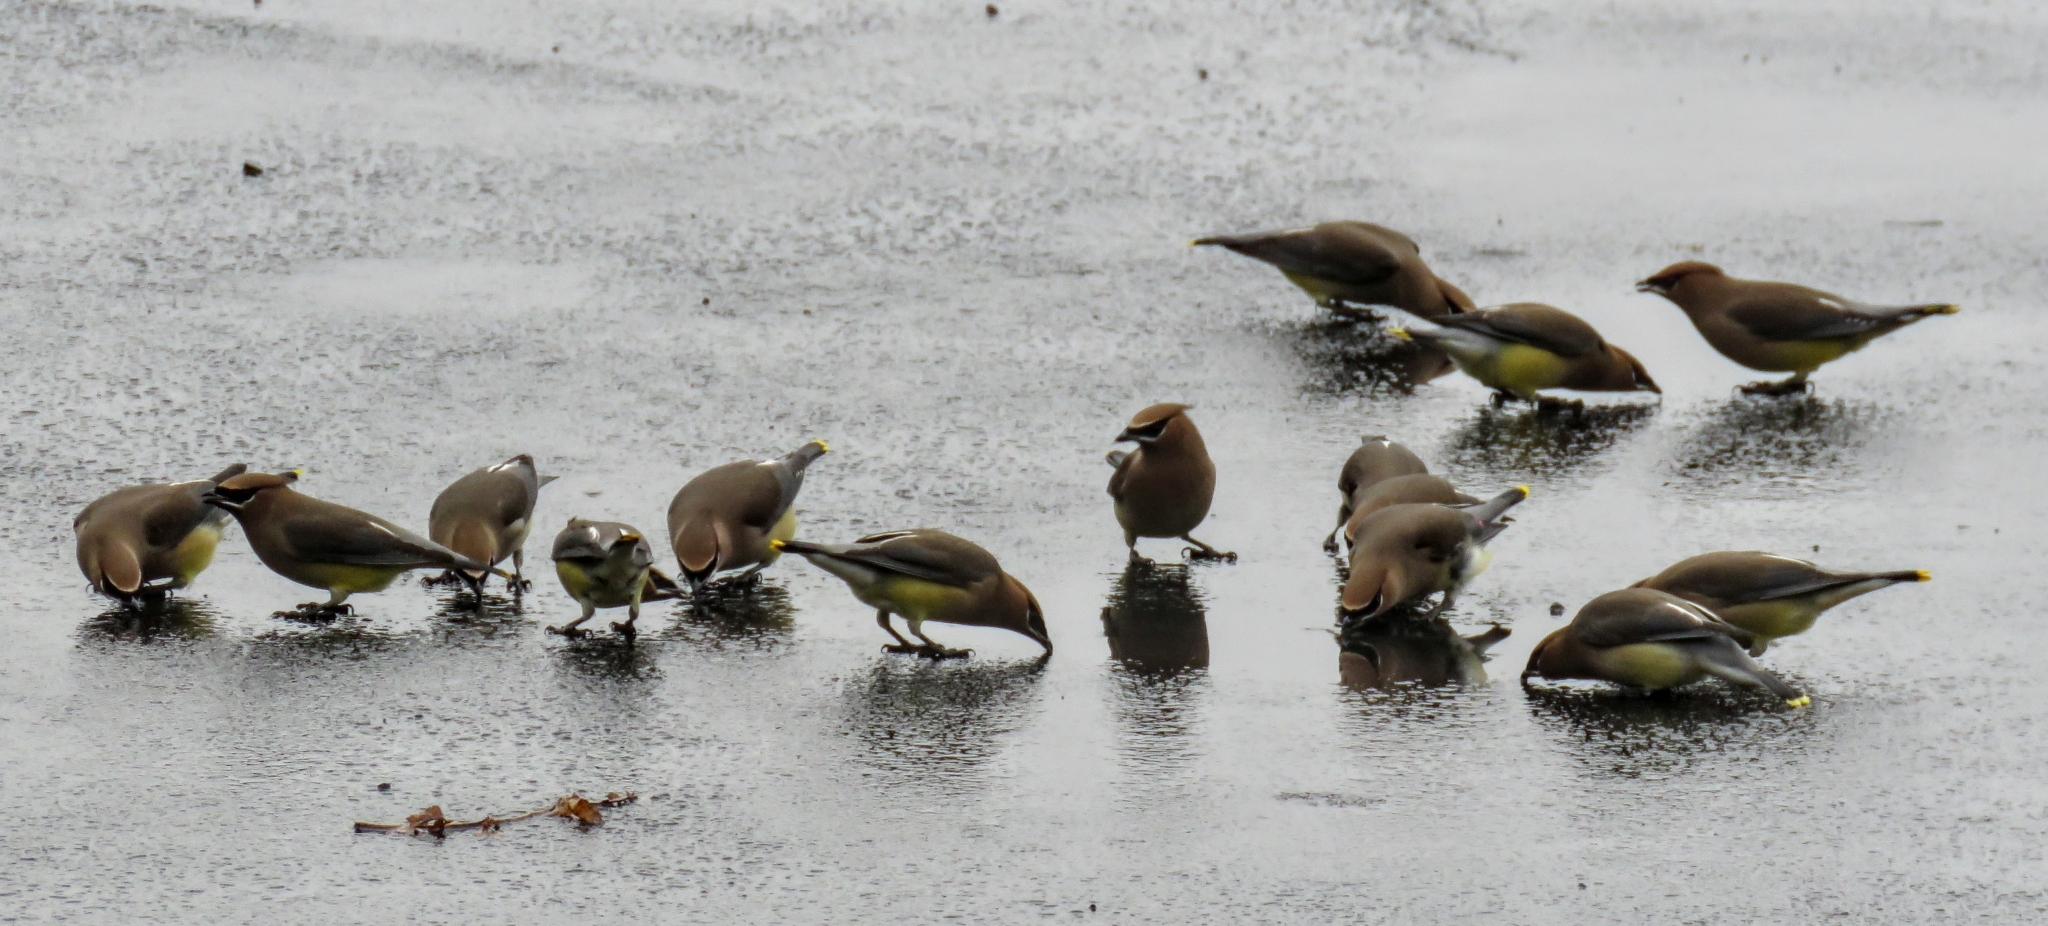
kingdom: Animalia
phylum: Chordata
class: Aves
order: Passeriformes
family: Bombycillidae
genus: Bombycilla
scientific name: Bombycilla cedrorum
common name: Cedar waxwing
